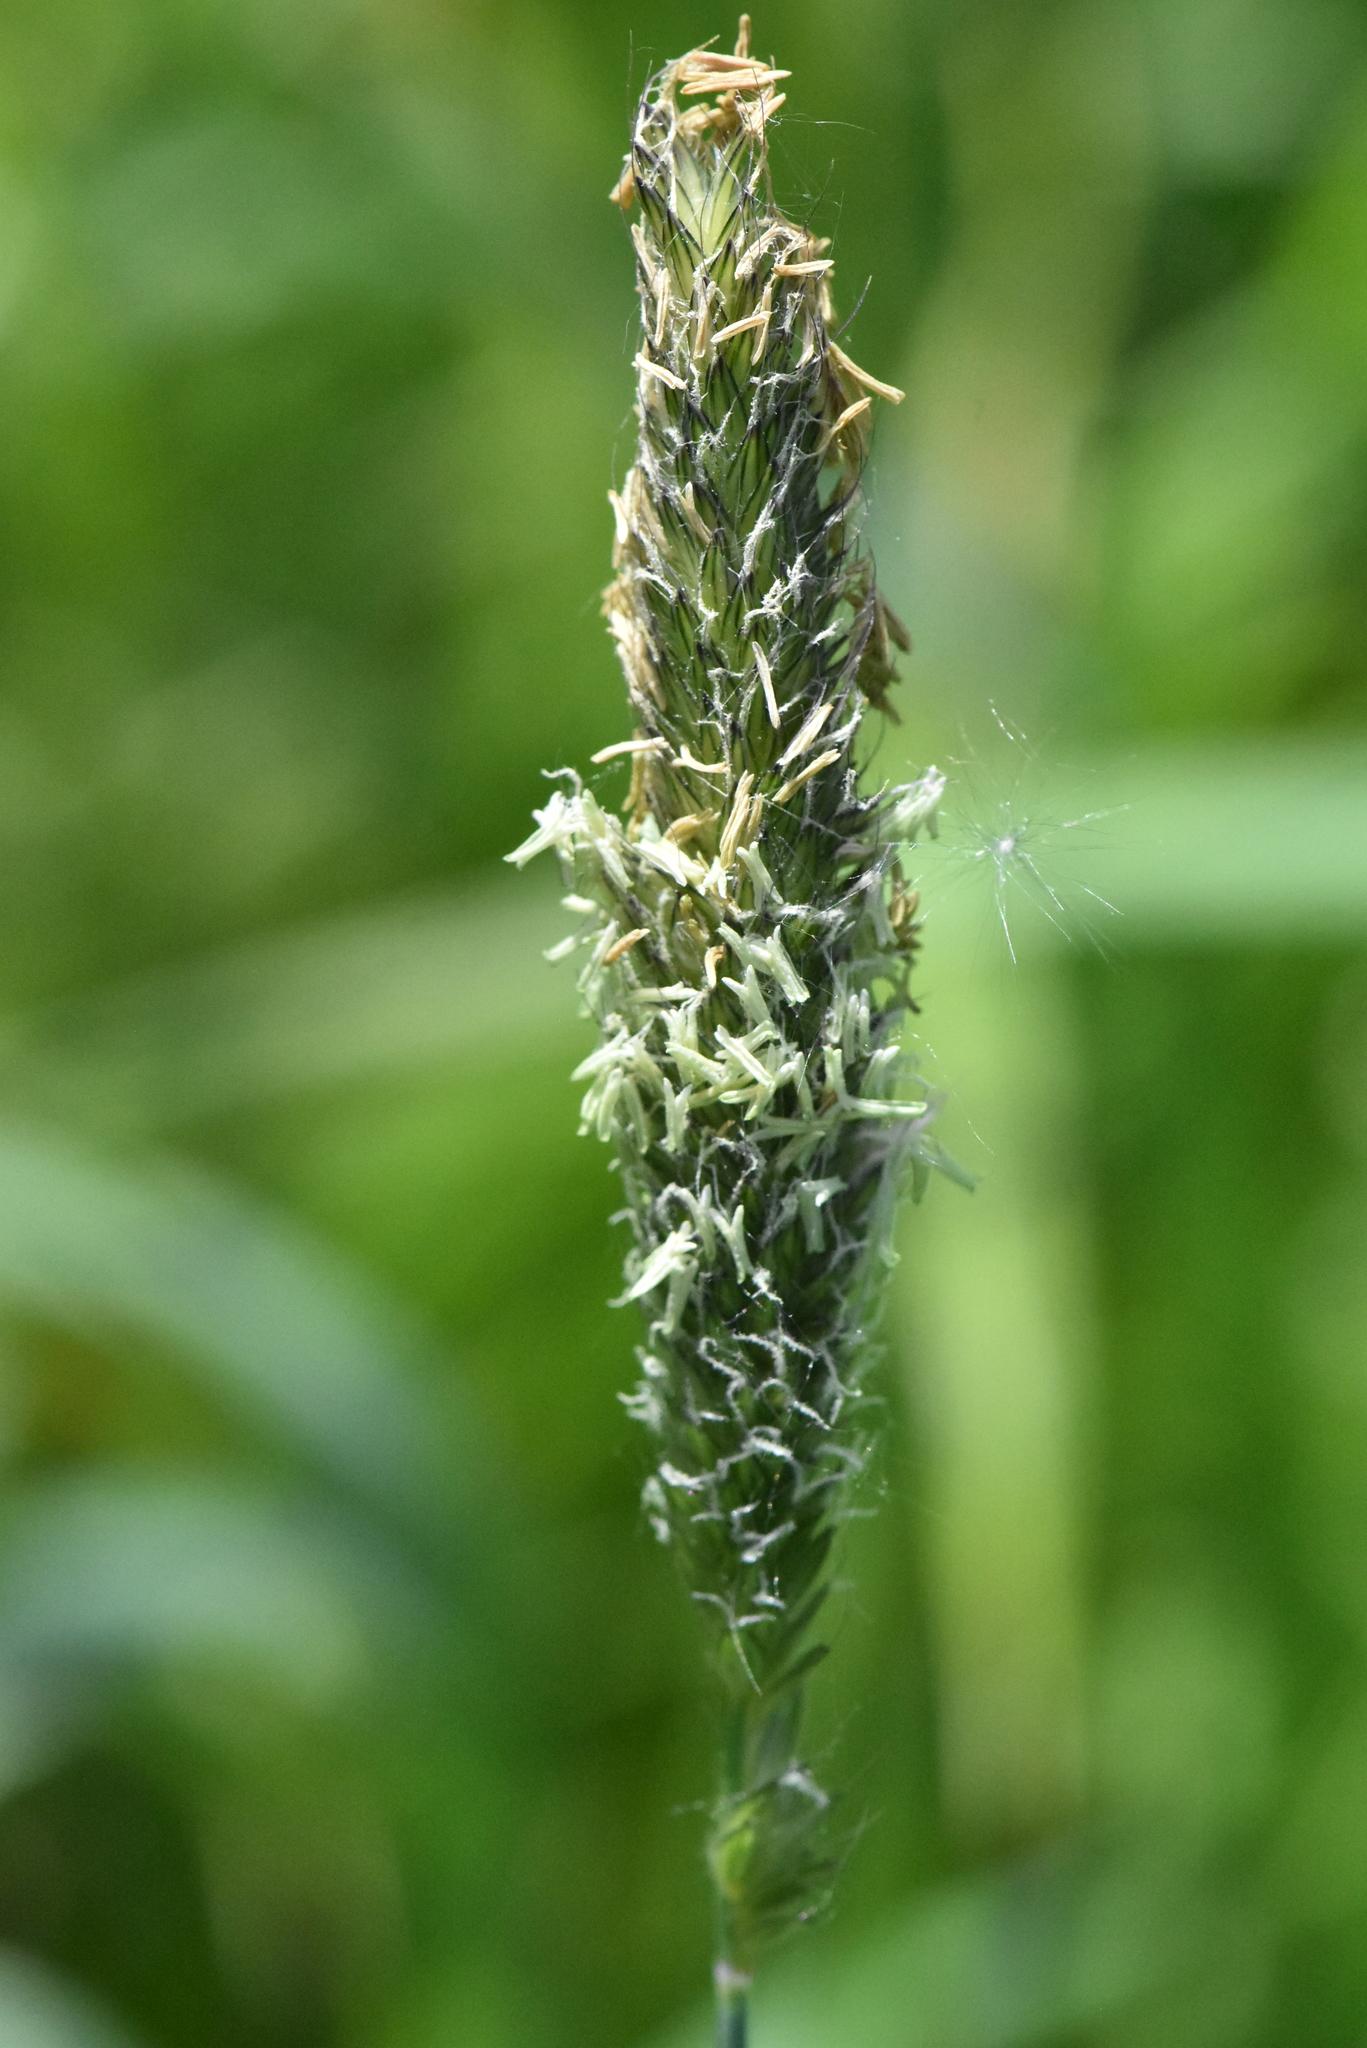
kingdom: Plantae
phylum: Tracheophyta
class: Liliopsida
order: Poales
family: Poaceae
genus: Alopecurus
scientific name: Alopecurus pratensis
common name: Meadow foxtail
